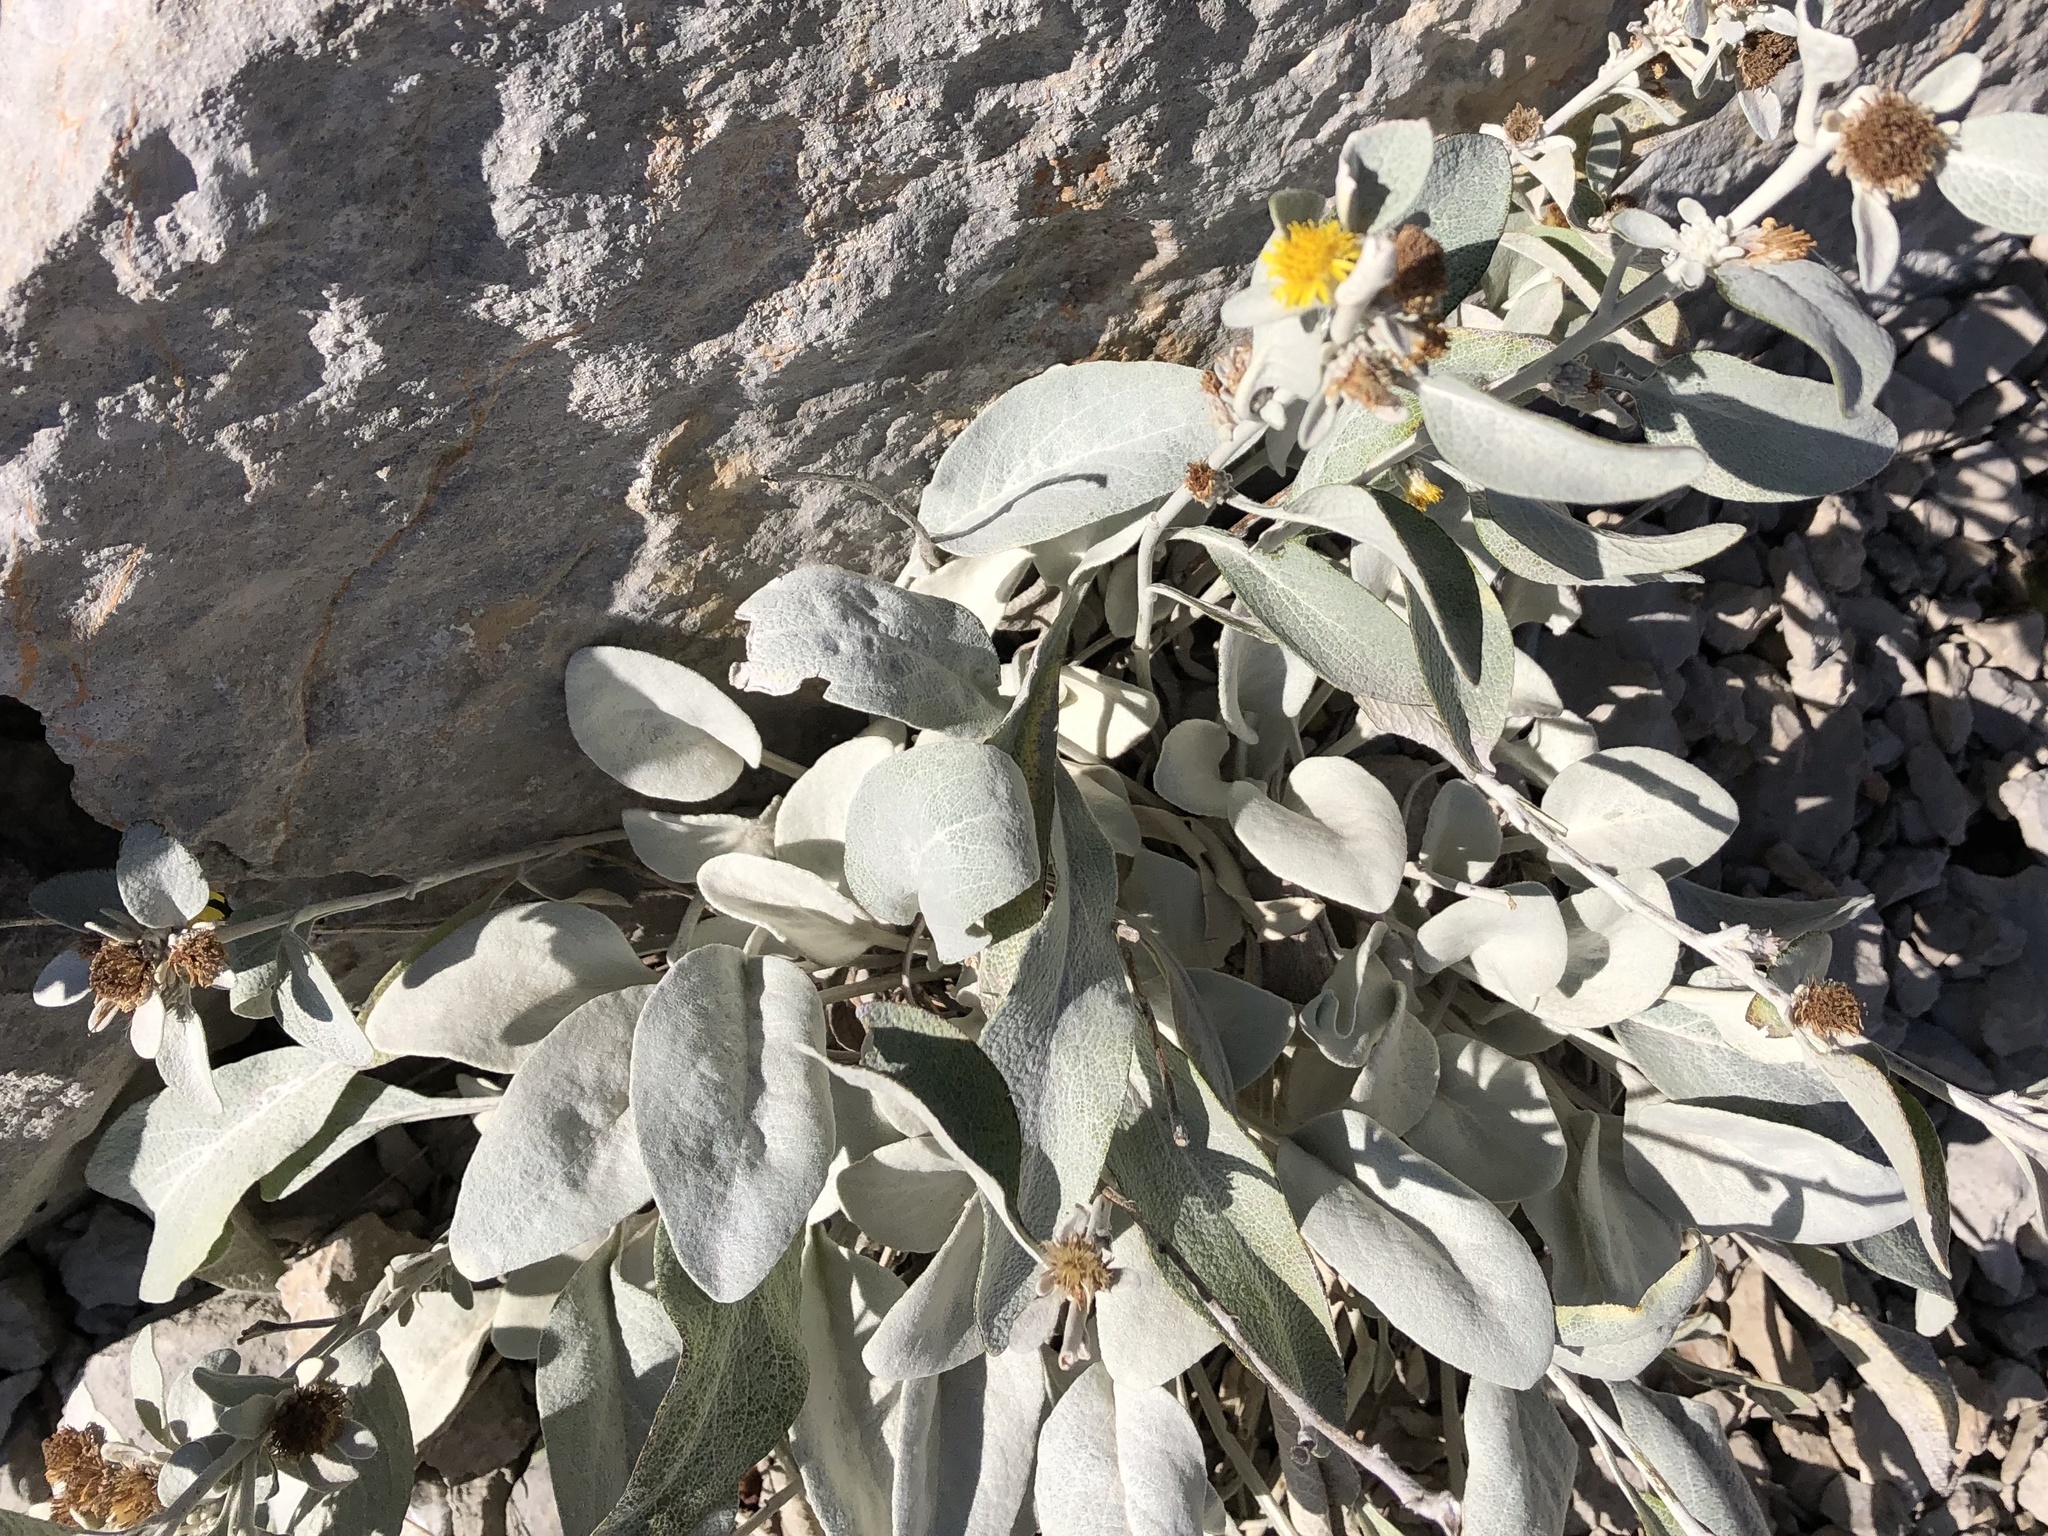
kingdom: Plantae
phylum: Tracheophyta
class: Magnoliopsida
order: Asterales
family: Asteraceae
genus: Pentanema
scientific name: Pentanema verbascifolium
